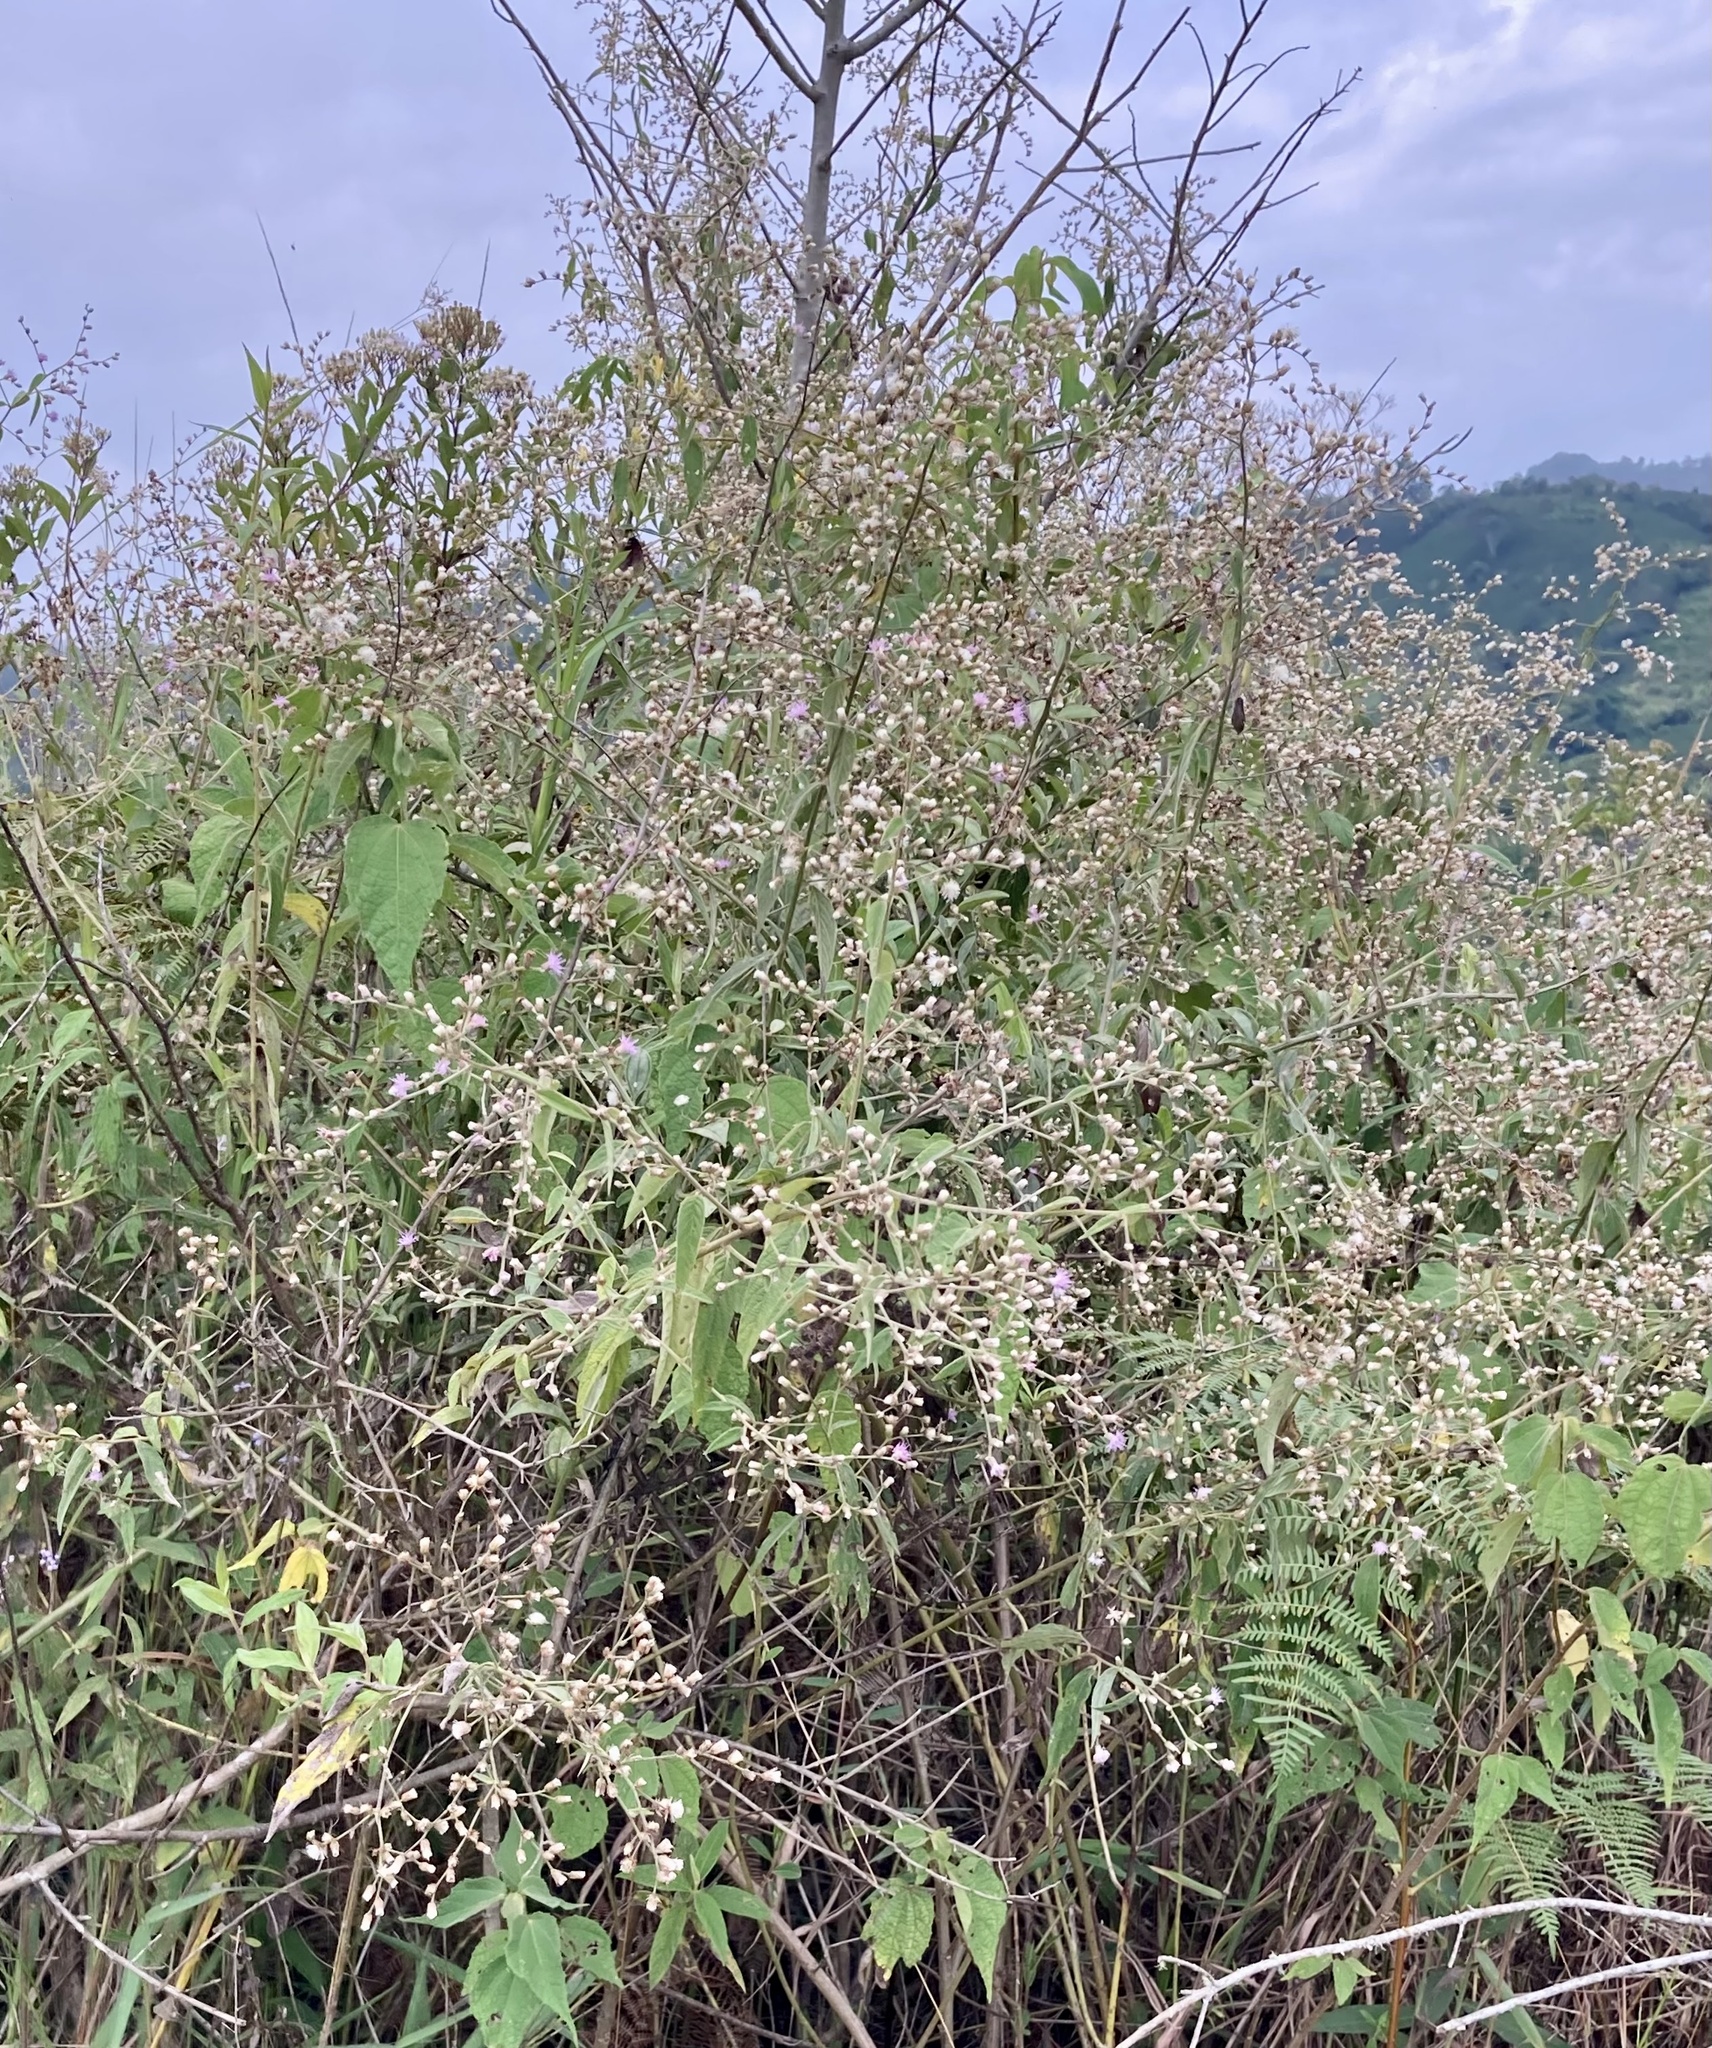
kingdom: Plantae
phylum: Tracheophyta
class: Magnoliopsida
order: Asterales
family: Asteraceae
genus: Lepidaploa
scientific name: Lepidaploa canescens
